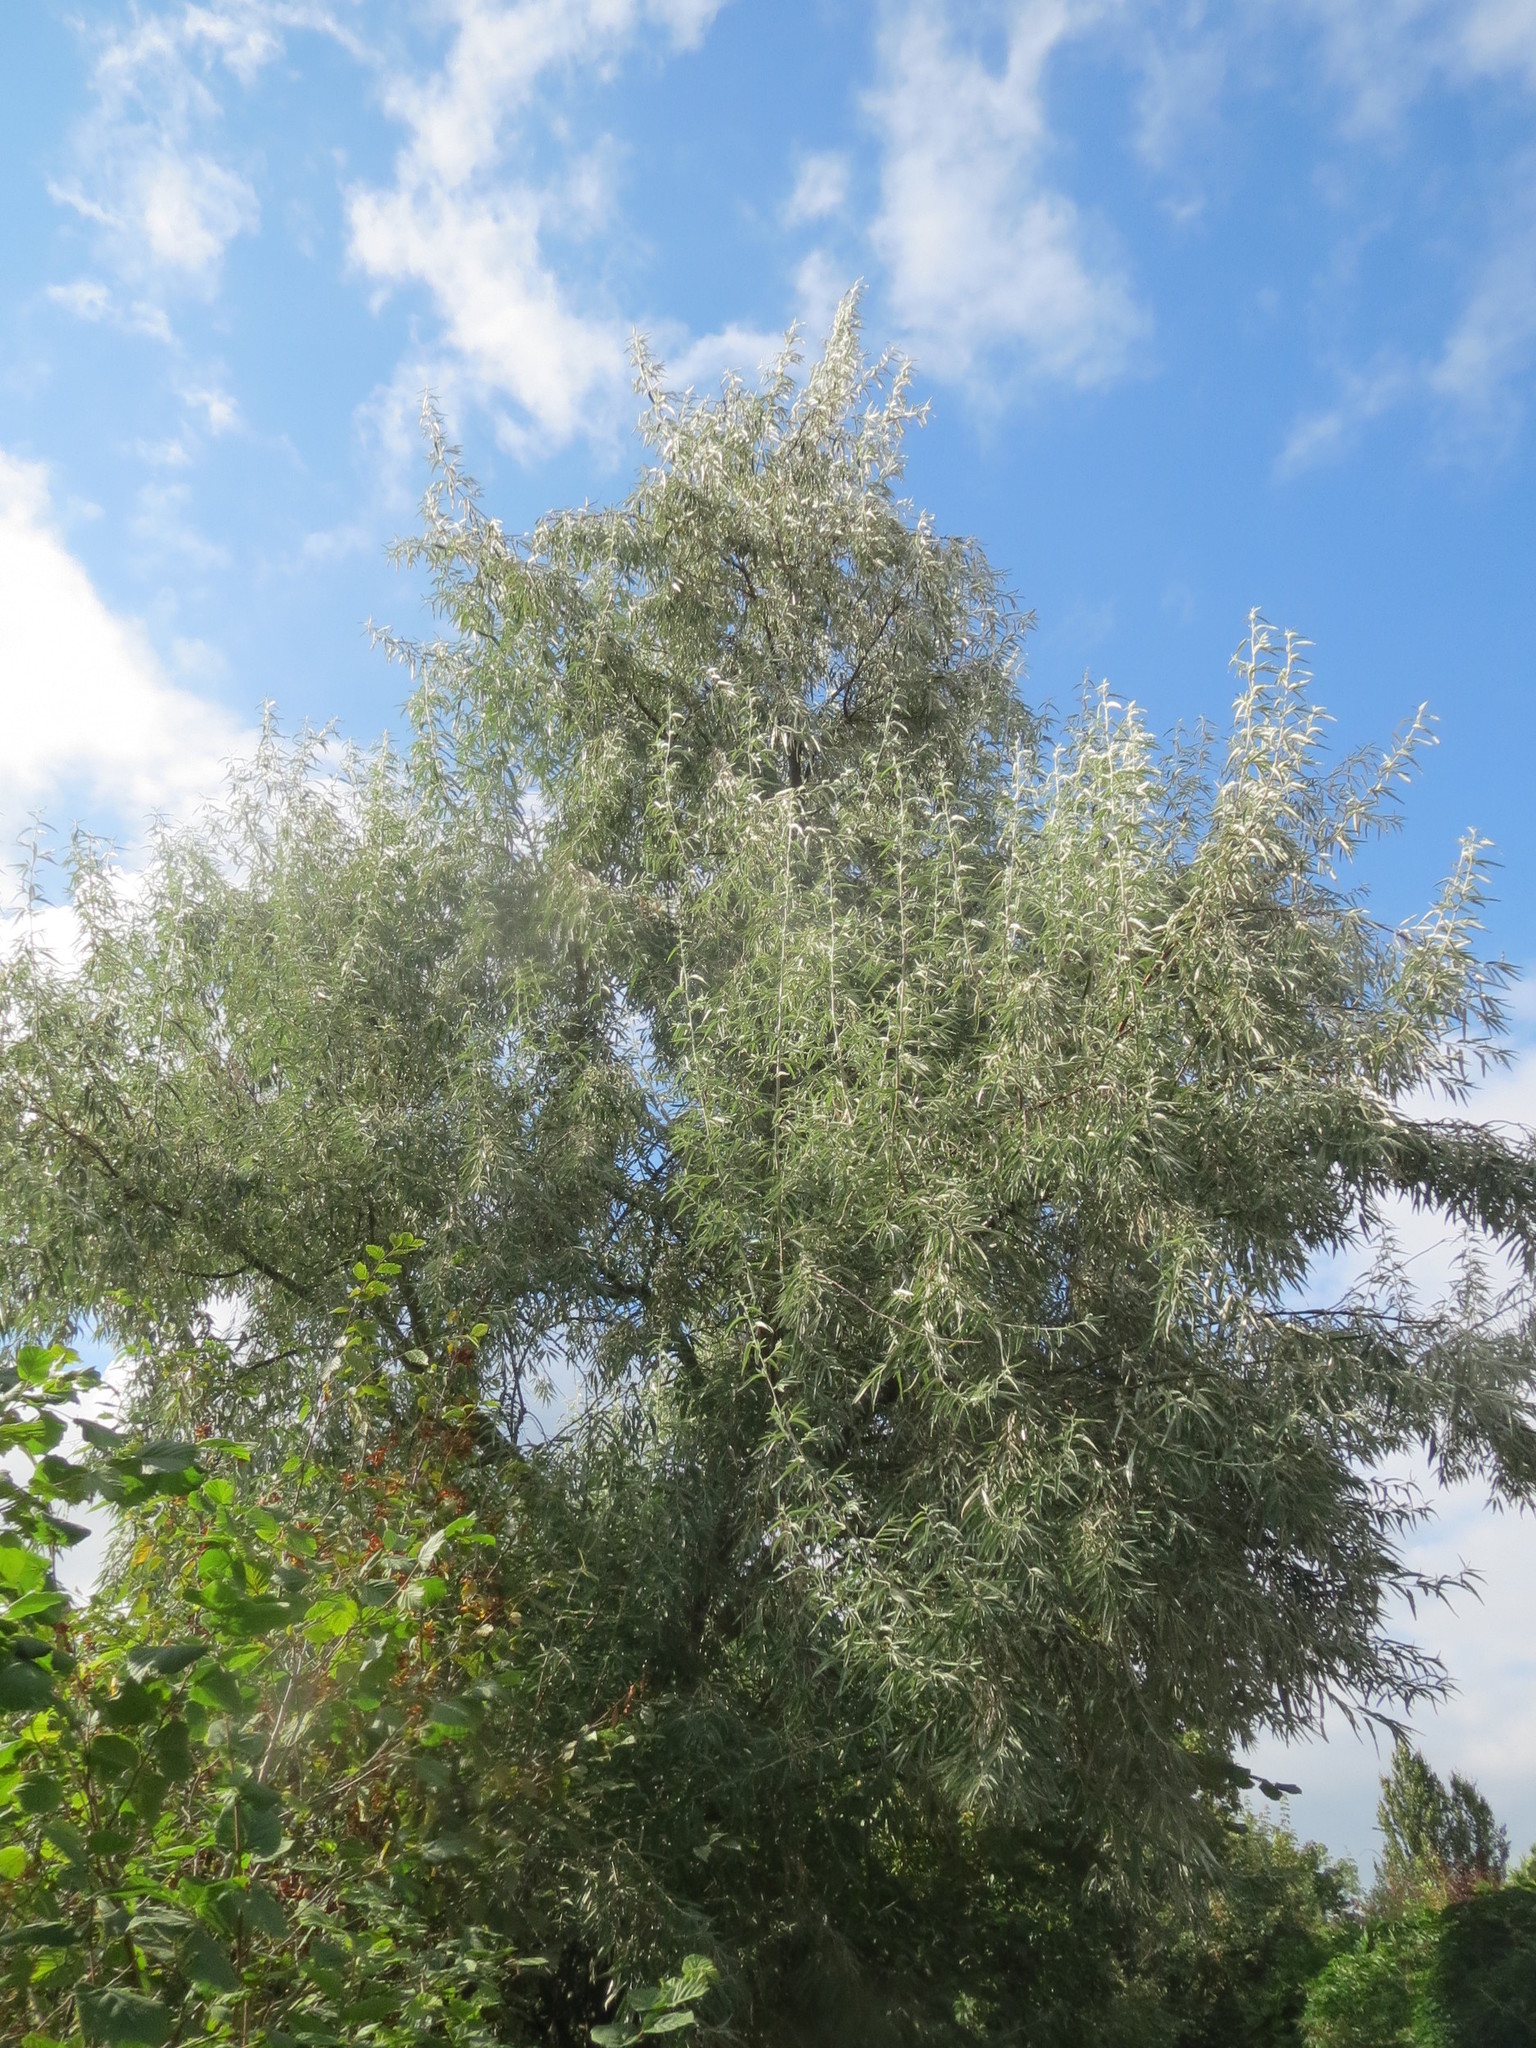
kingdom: Plantae
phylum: Tracheophyta
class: Magnoliopsida
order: Rosales
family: Elaeagnaceae
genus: Elaeagnus
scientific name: Elaeagnus angustifolia
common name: Russian olive
